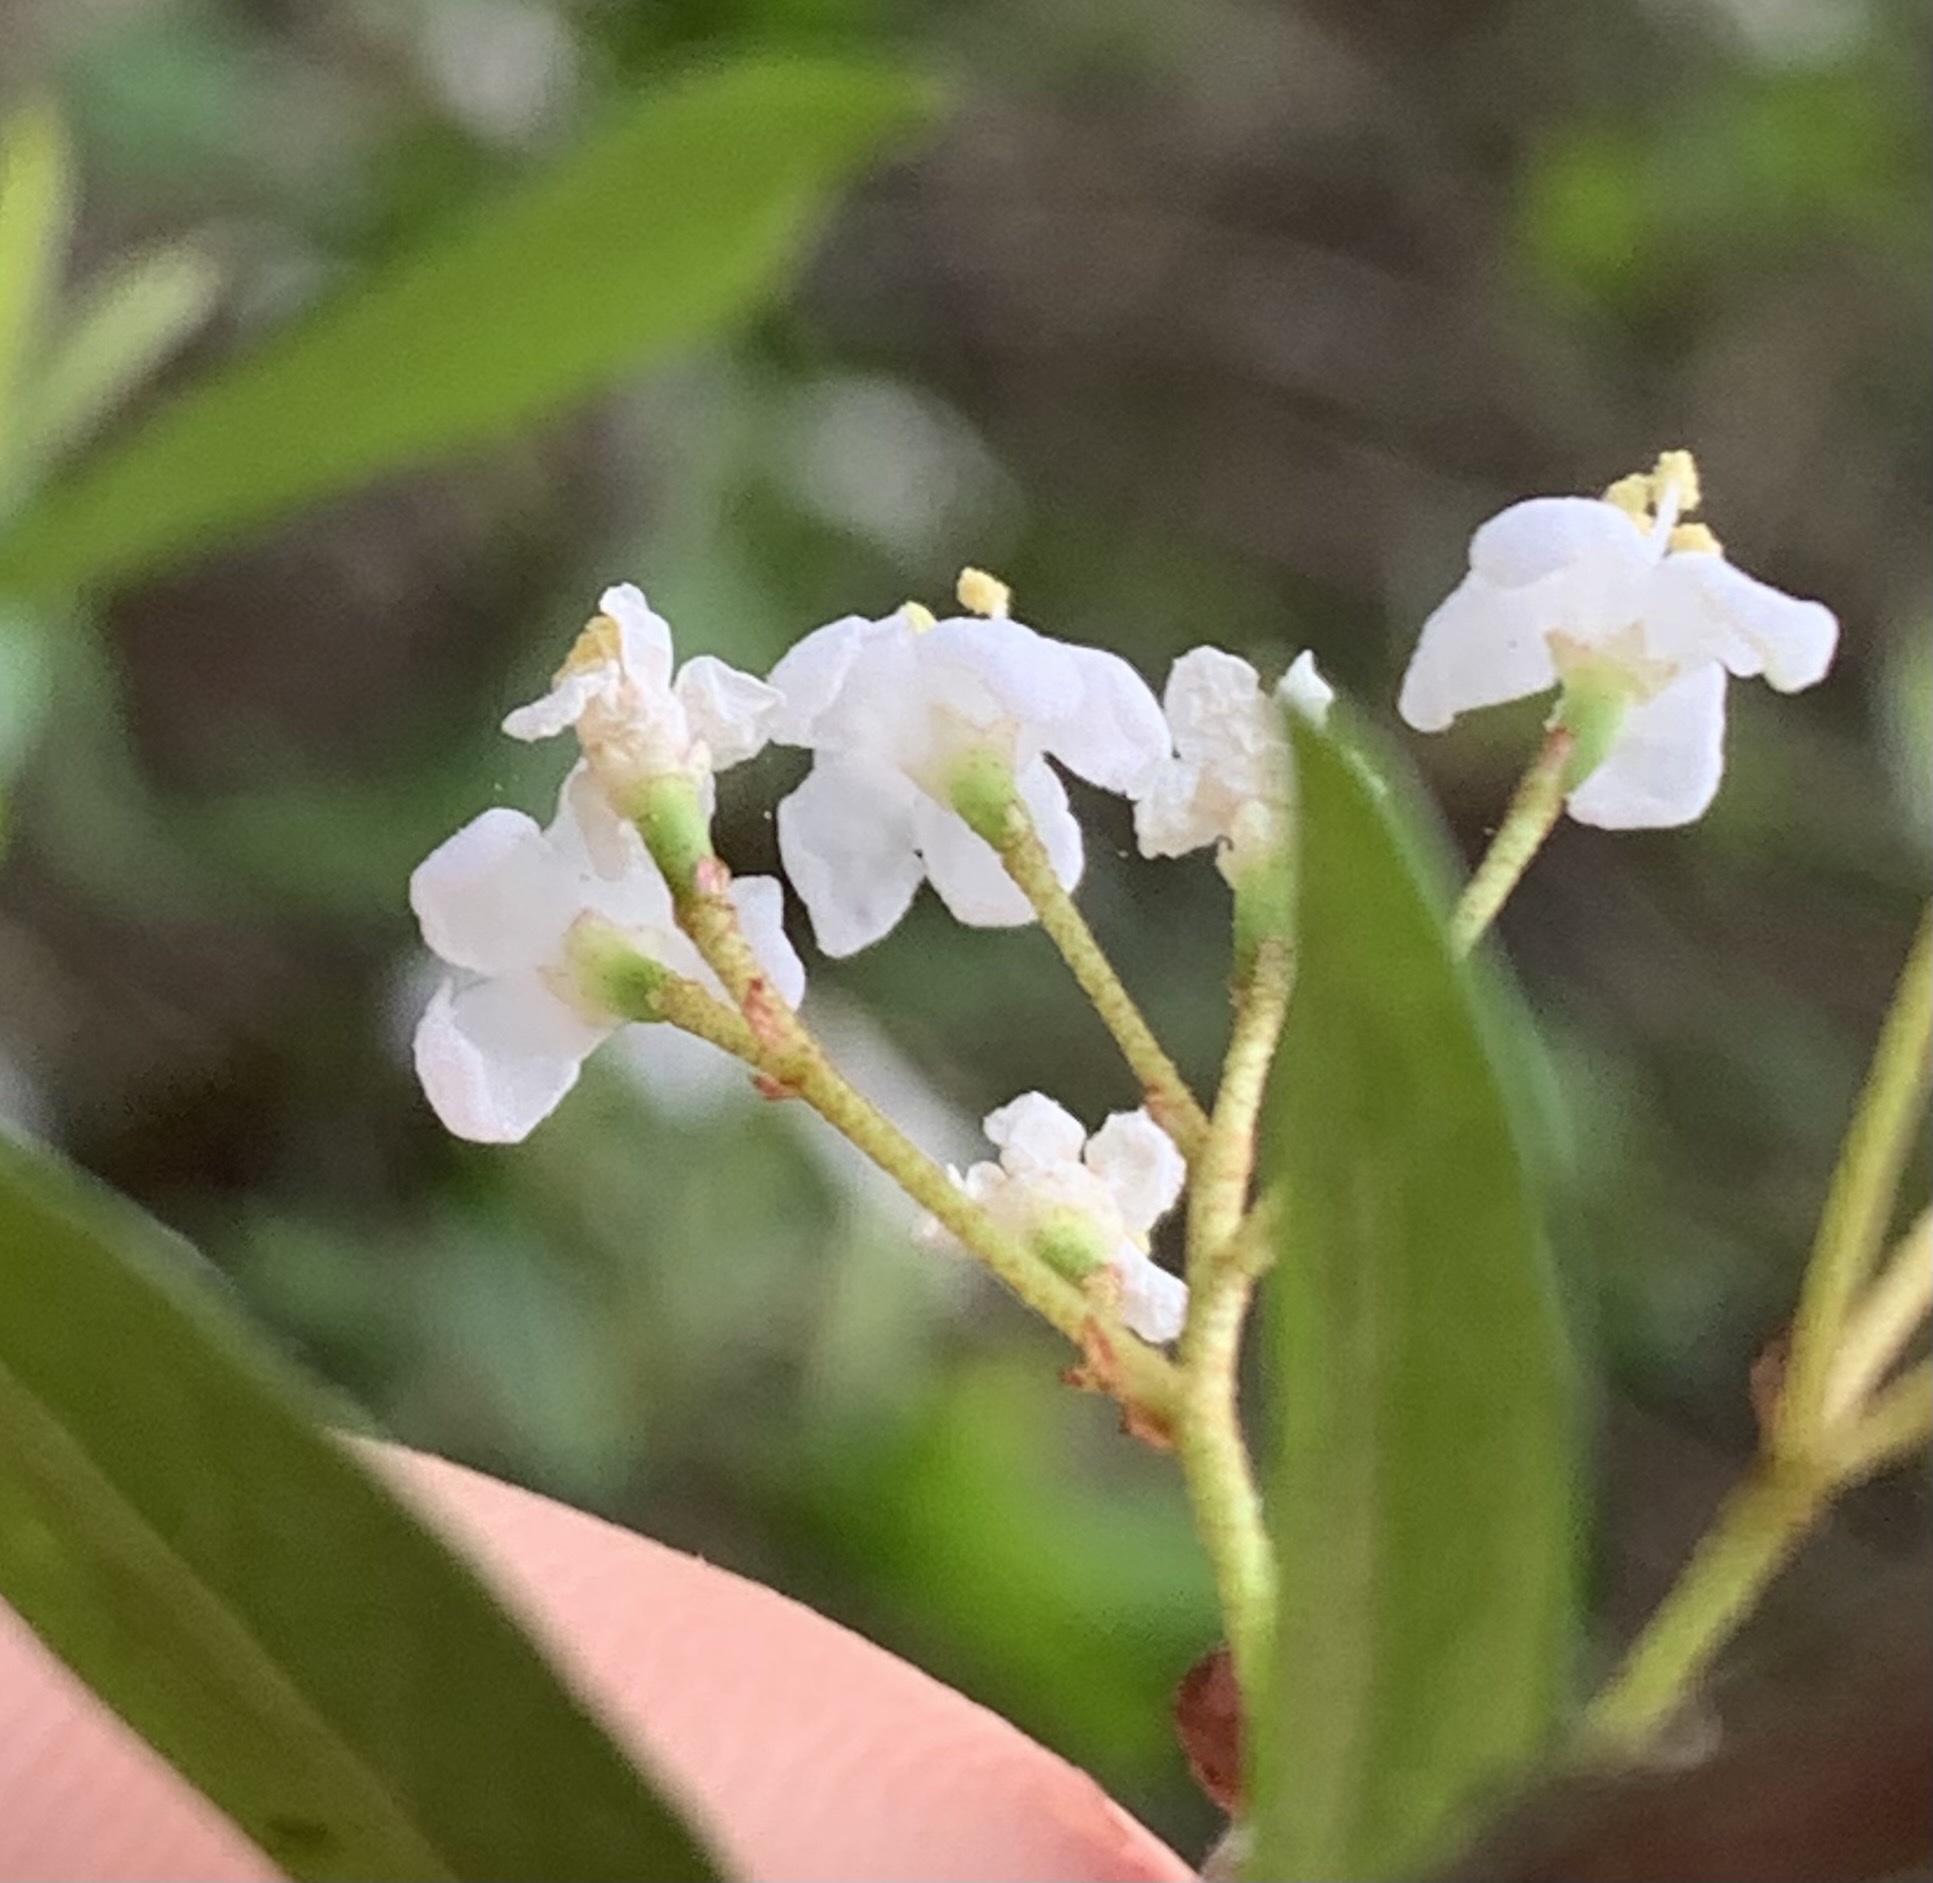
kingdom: Plantae
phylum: Tracheophyta
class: Magnoliopsida
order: Dipsacales
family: Viburnaceae
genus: Viburnum
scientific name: Viburnum obovatum
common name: Walter's viburnum
